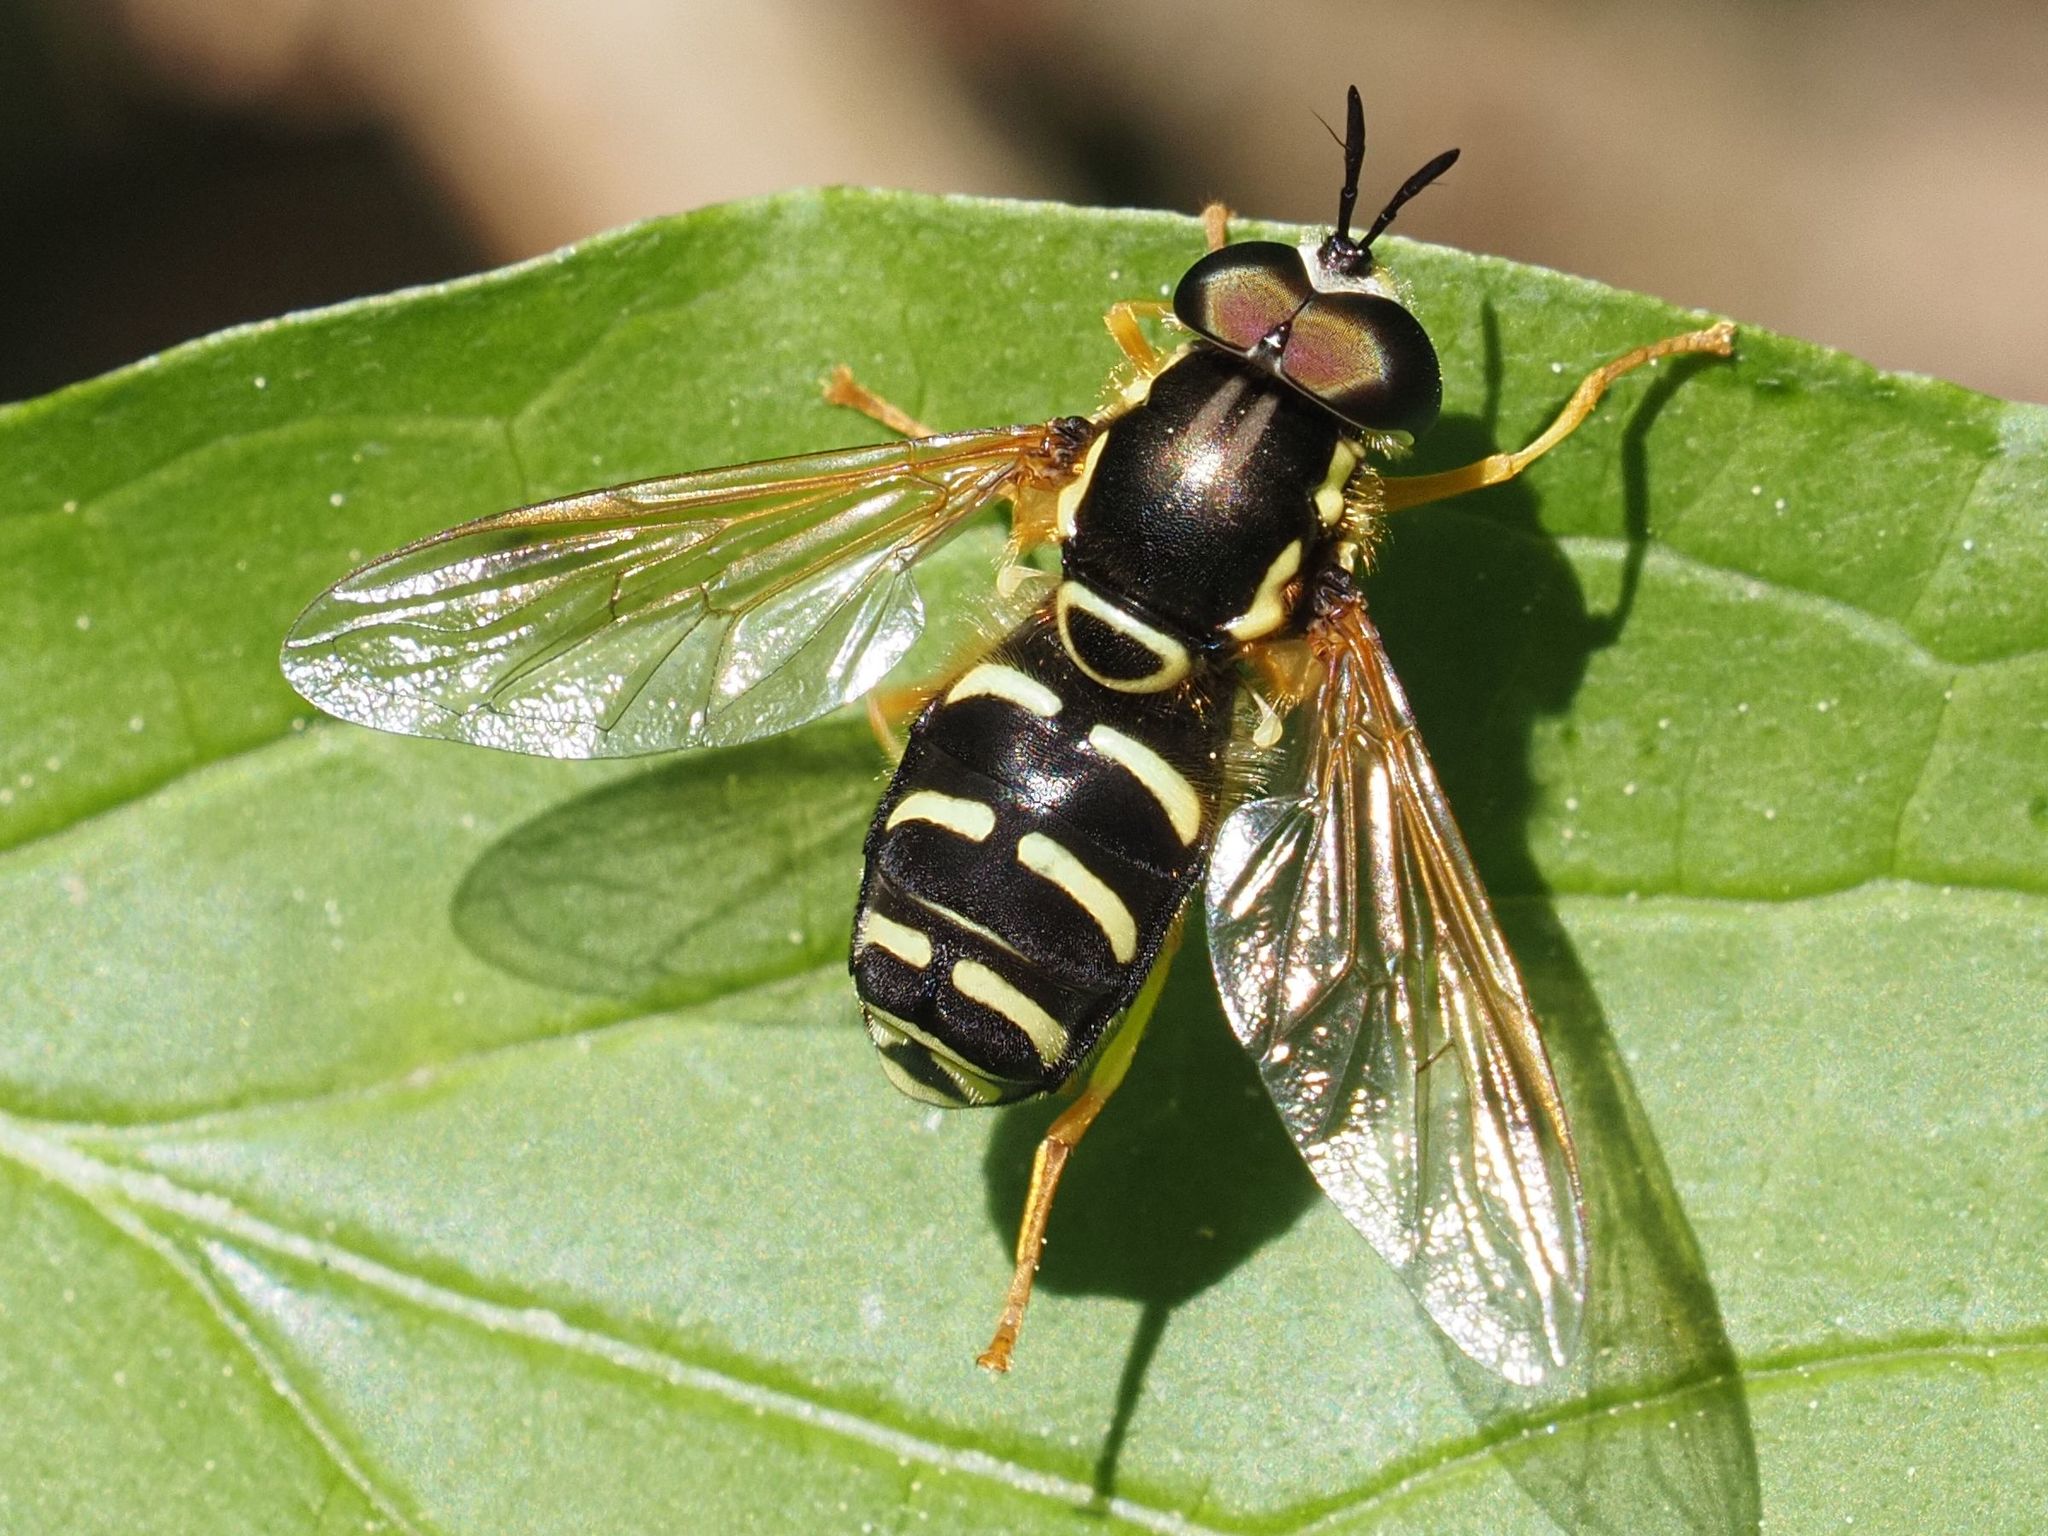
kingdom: Animalia
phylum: Arthropoda
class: Insecta
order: Diptera
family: Syrphidae
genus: Chrysotoxum
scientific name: Chrysotoxum festivum
